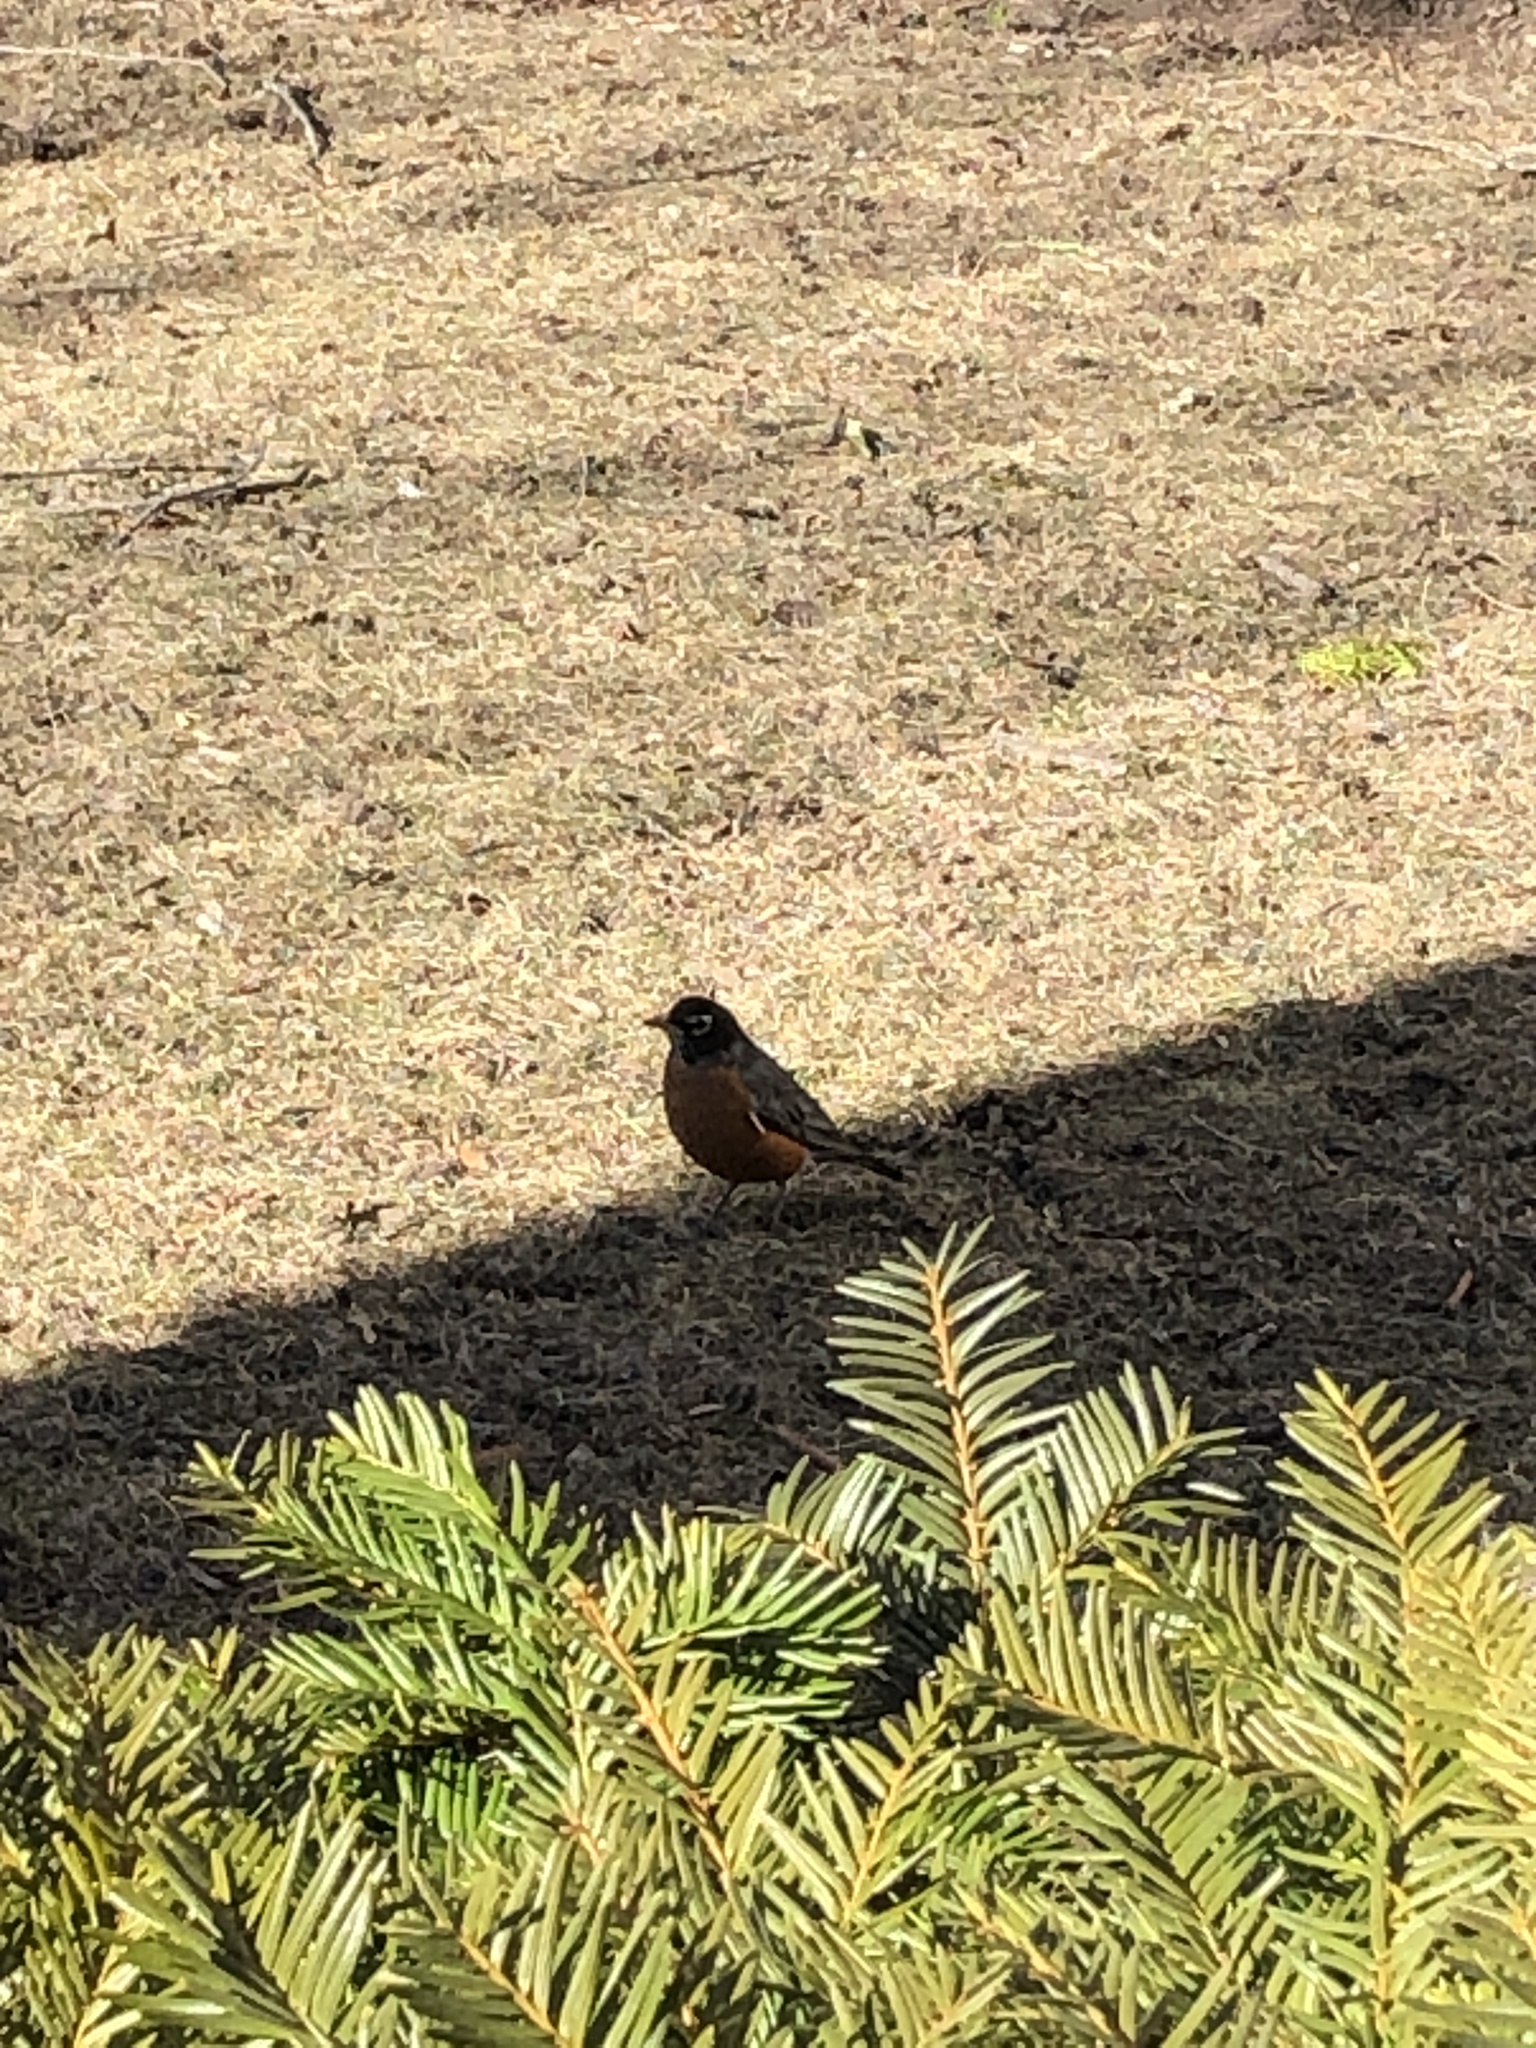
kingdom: Animalia
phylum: Chordata
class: Aves
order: Passeriformes
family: Turdidae
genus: Turdus
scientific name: Turdus migratorius
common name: American robin
